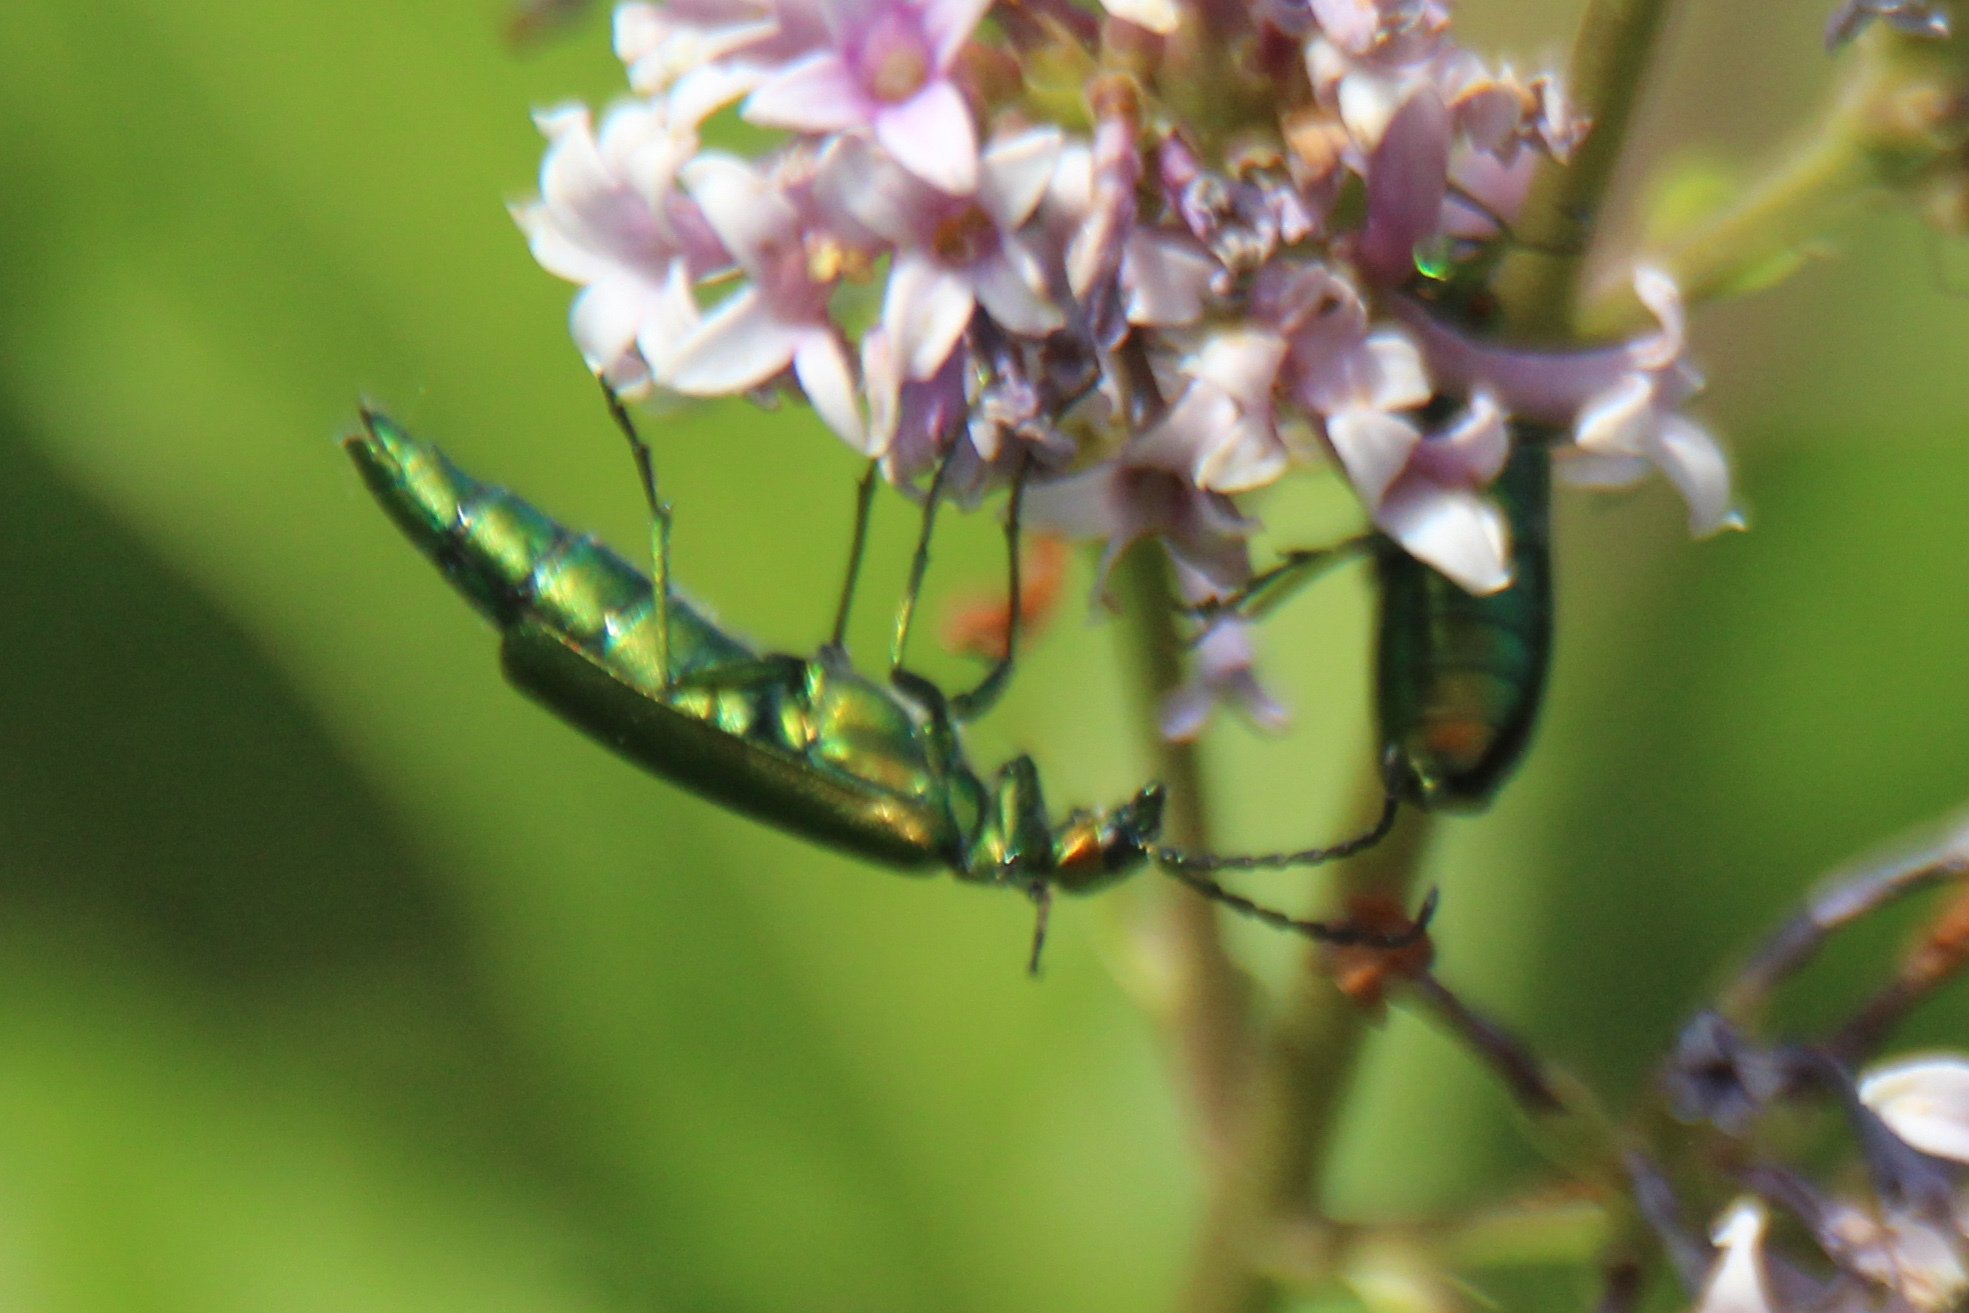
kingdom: Animalia
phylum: Arthropoda
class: Insecta
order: Coleoptera
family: Meloidae
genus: Lytta
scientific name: Lytta vesicatoria
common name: Spanish fly
